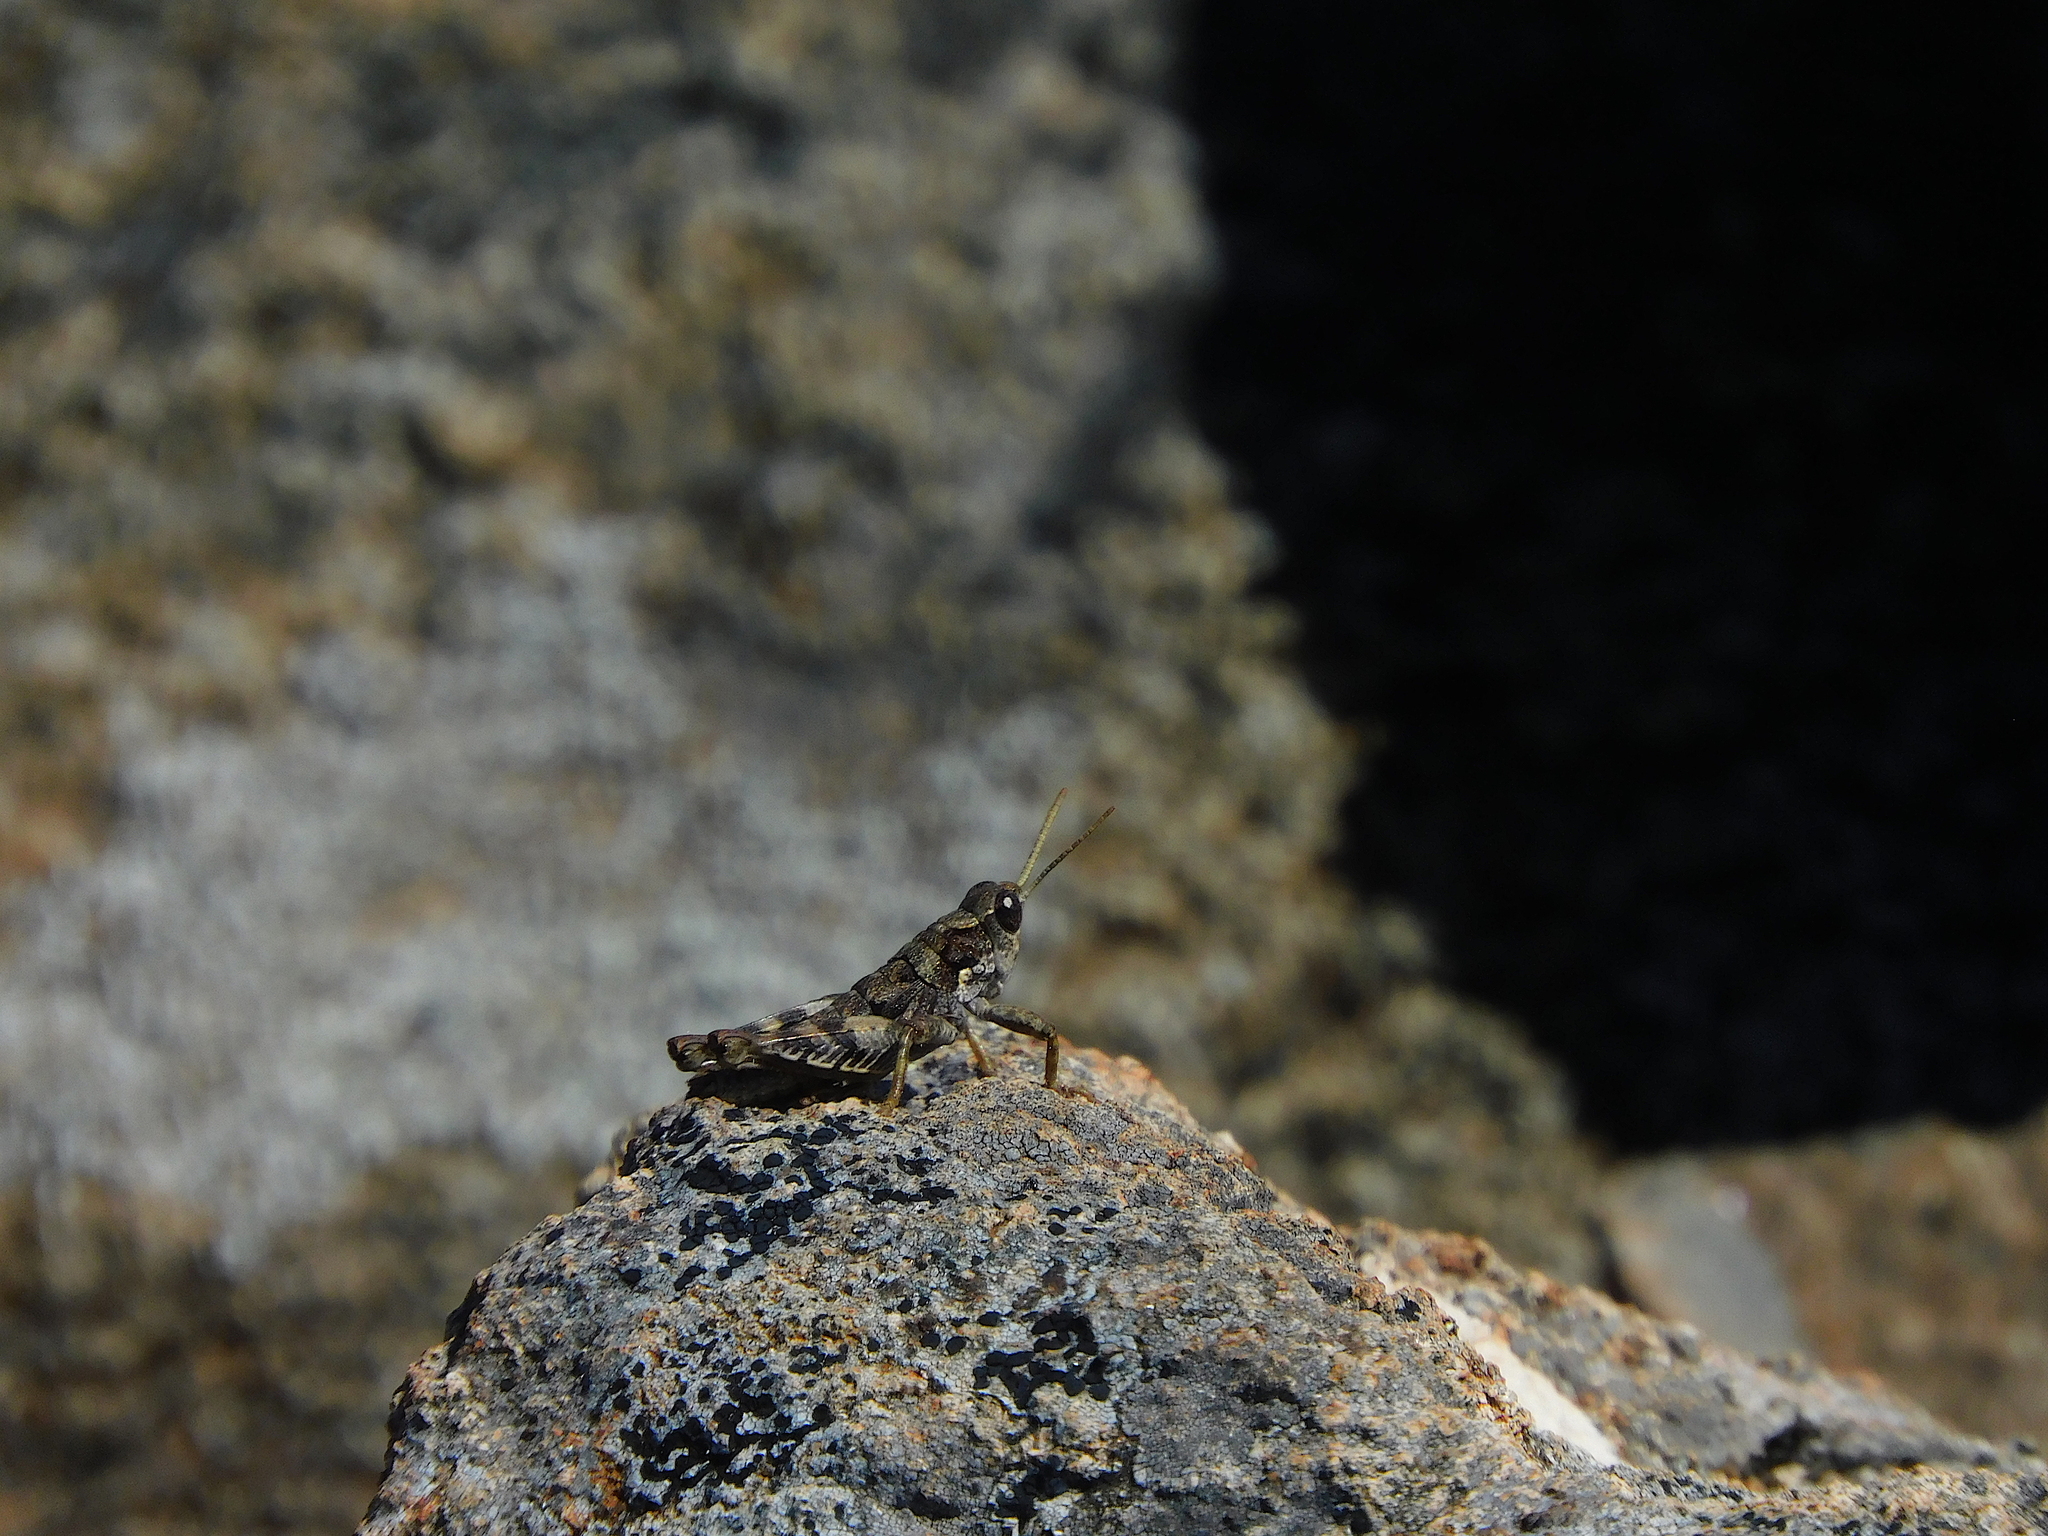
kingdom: Animalia
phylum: Arthropoda
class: Insecta
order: Orthoptera
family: Acrididae
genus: Tasmaniacris
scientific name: Tasmaniacris tasmaniensis
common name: Tasmanian grasshopper
